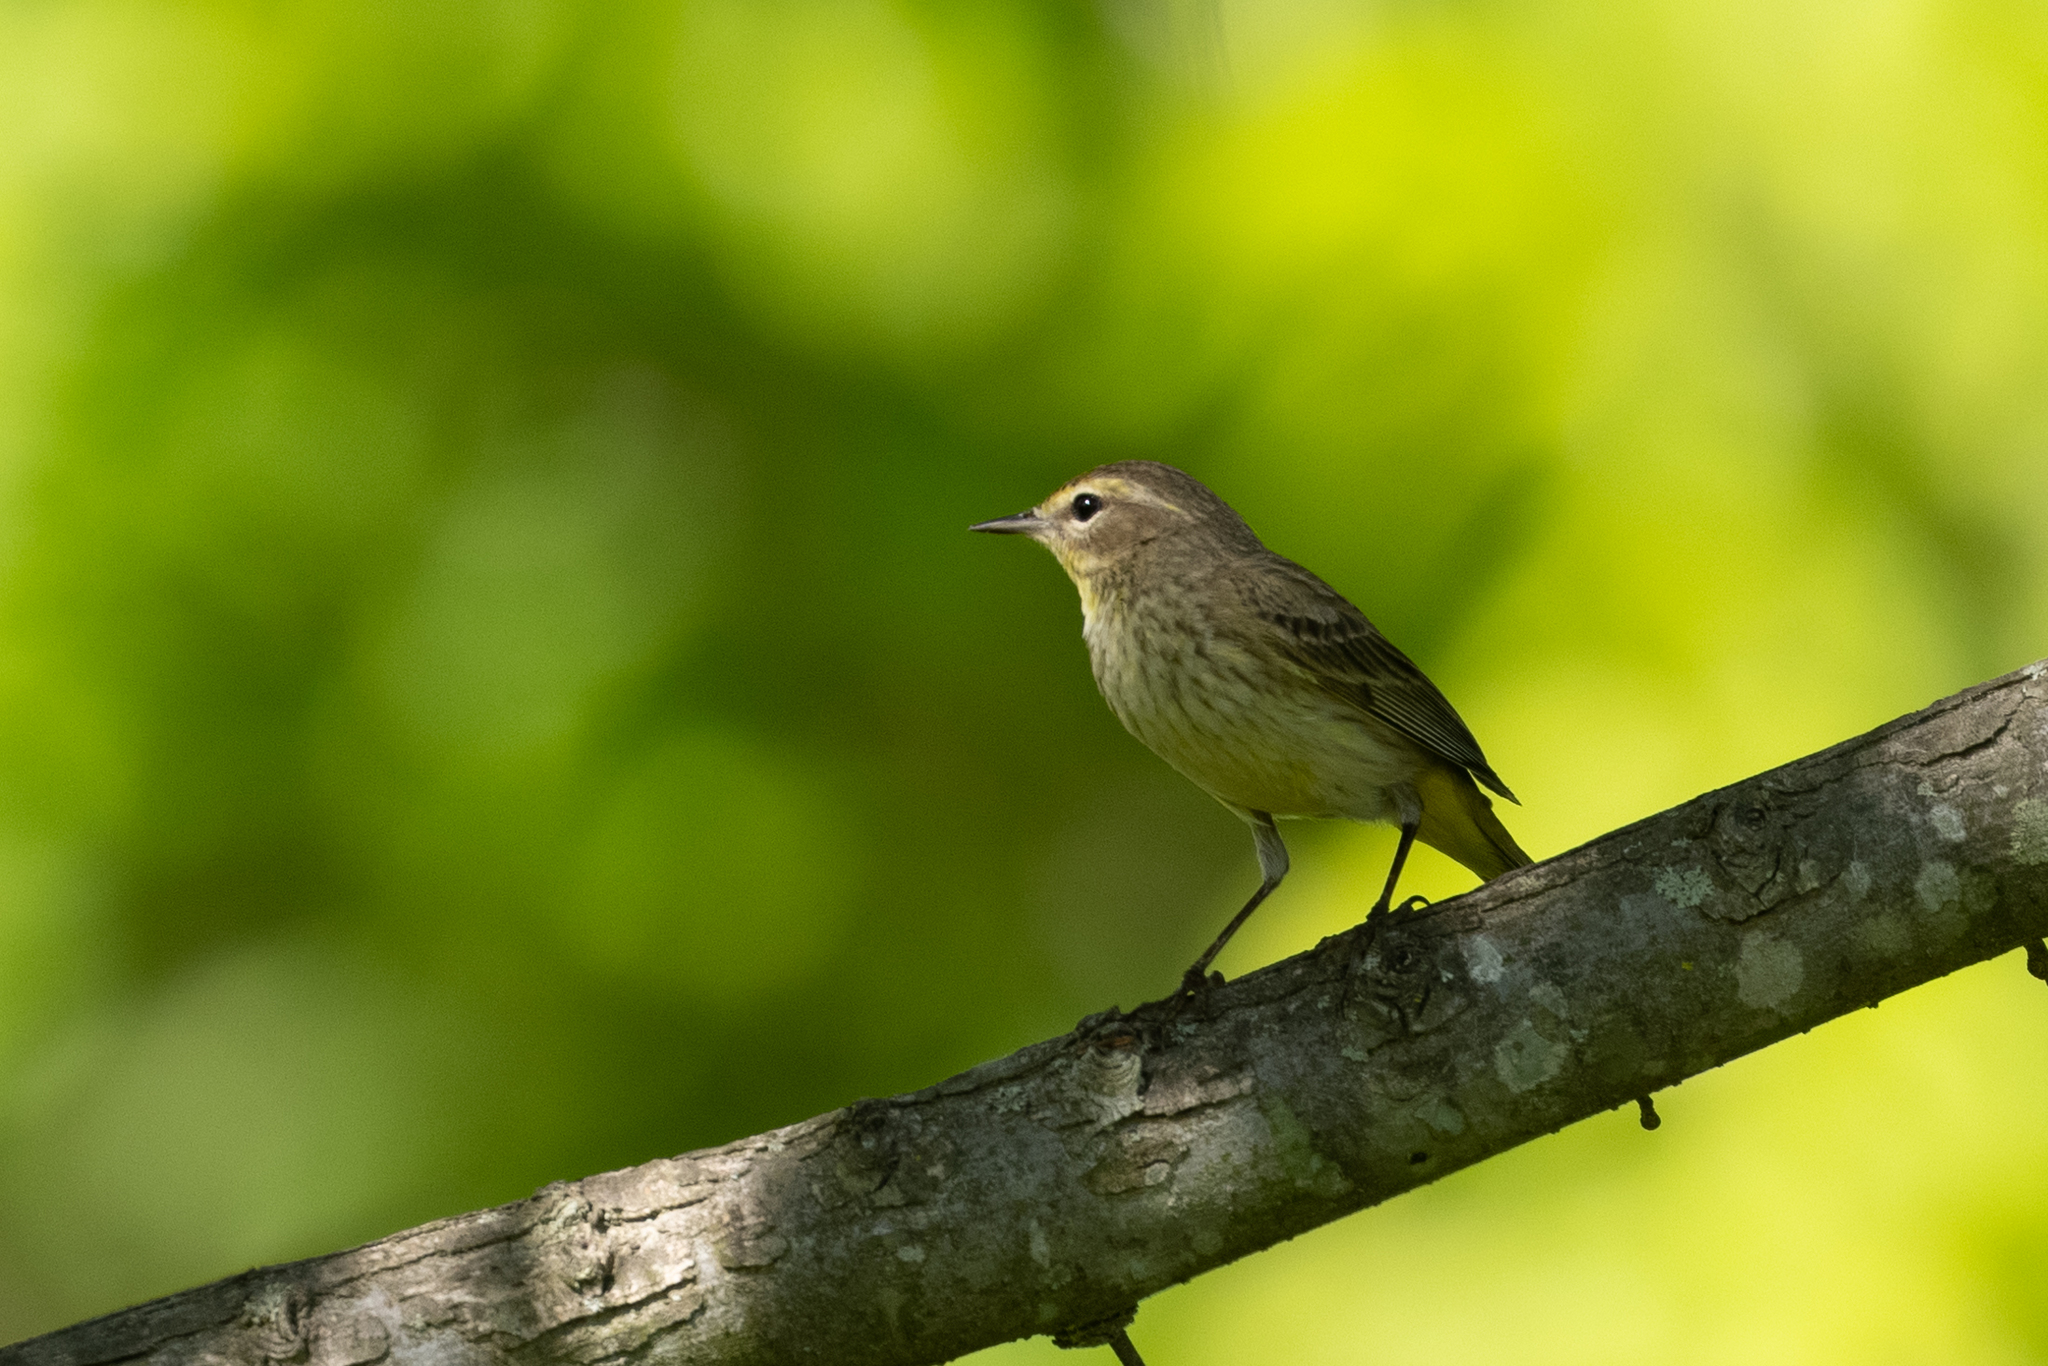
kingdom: Animalia
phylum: Chordata
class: Aves
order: Passeriformes
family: Parulidae
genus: Setophaga
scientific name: Setophaga palmarum
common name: Palm warbler
